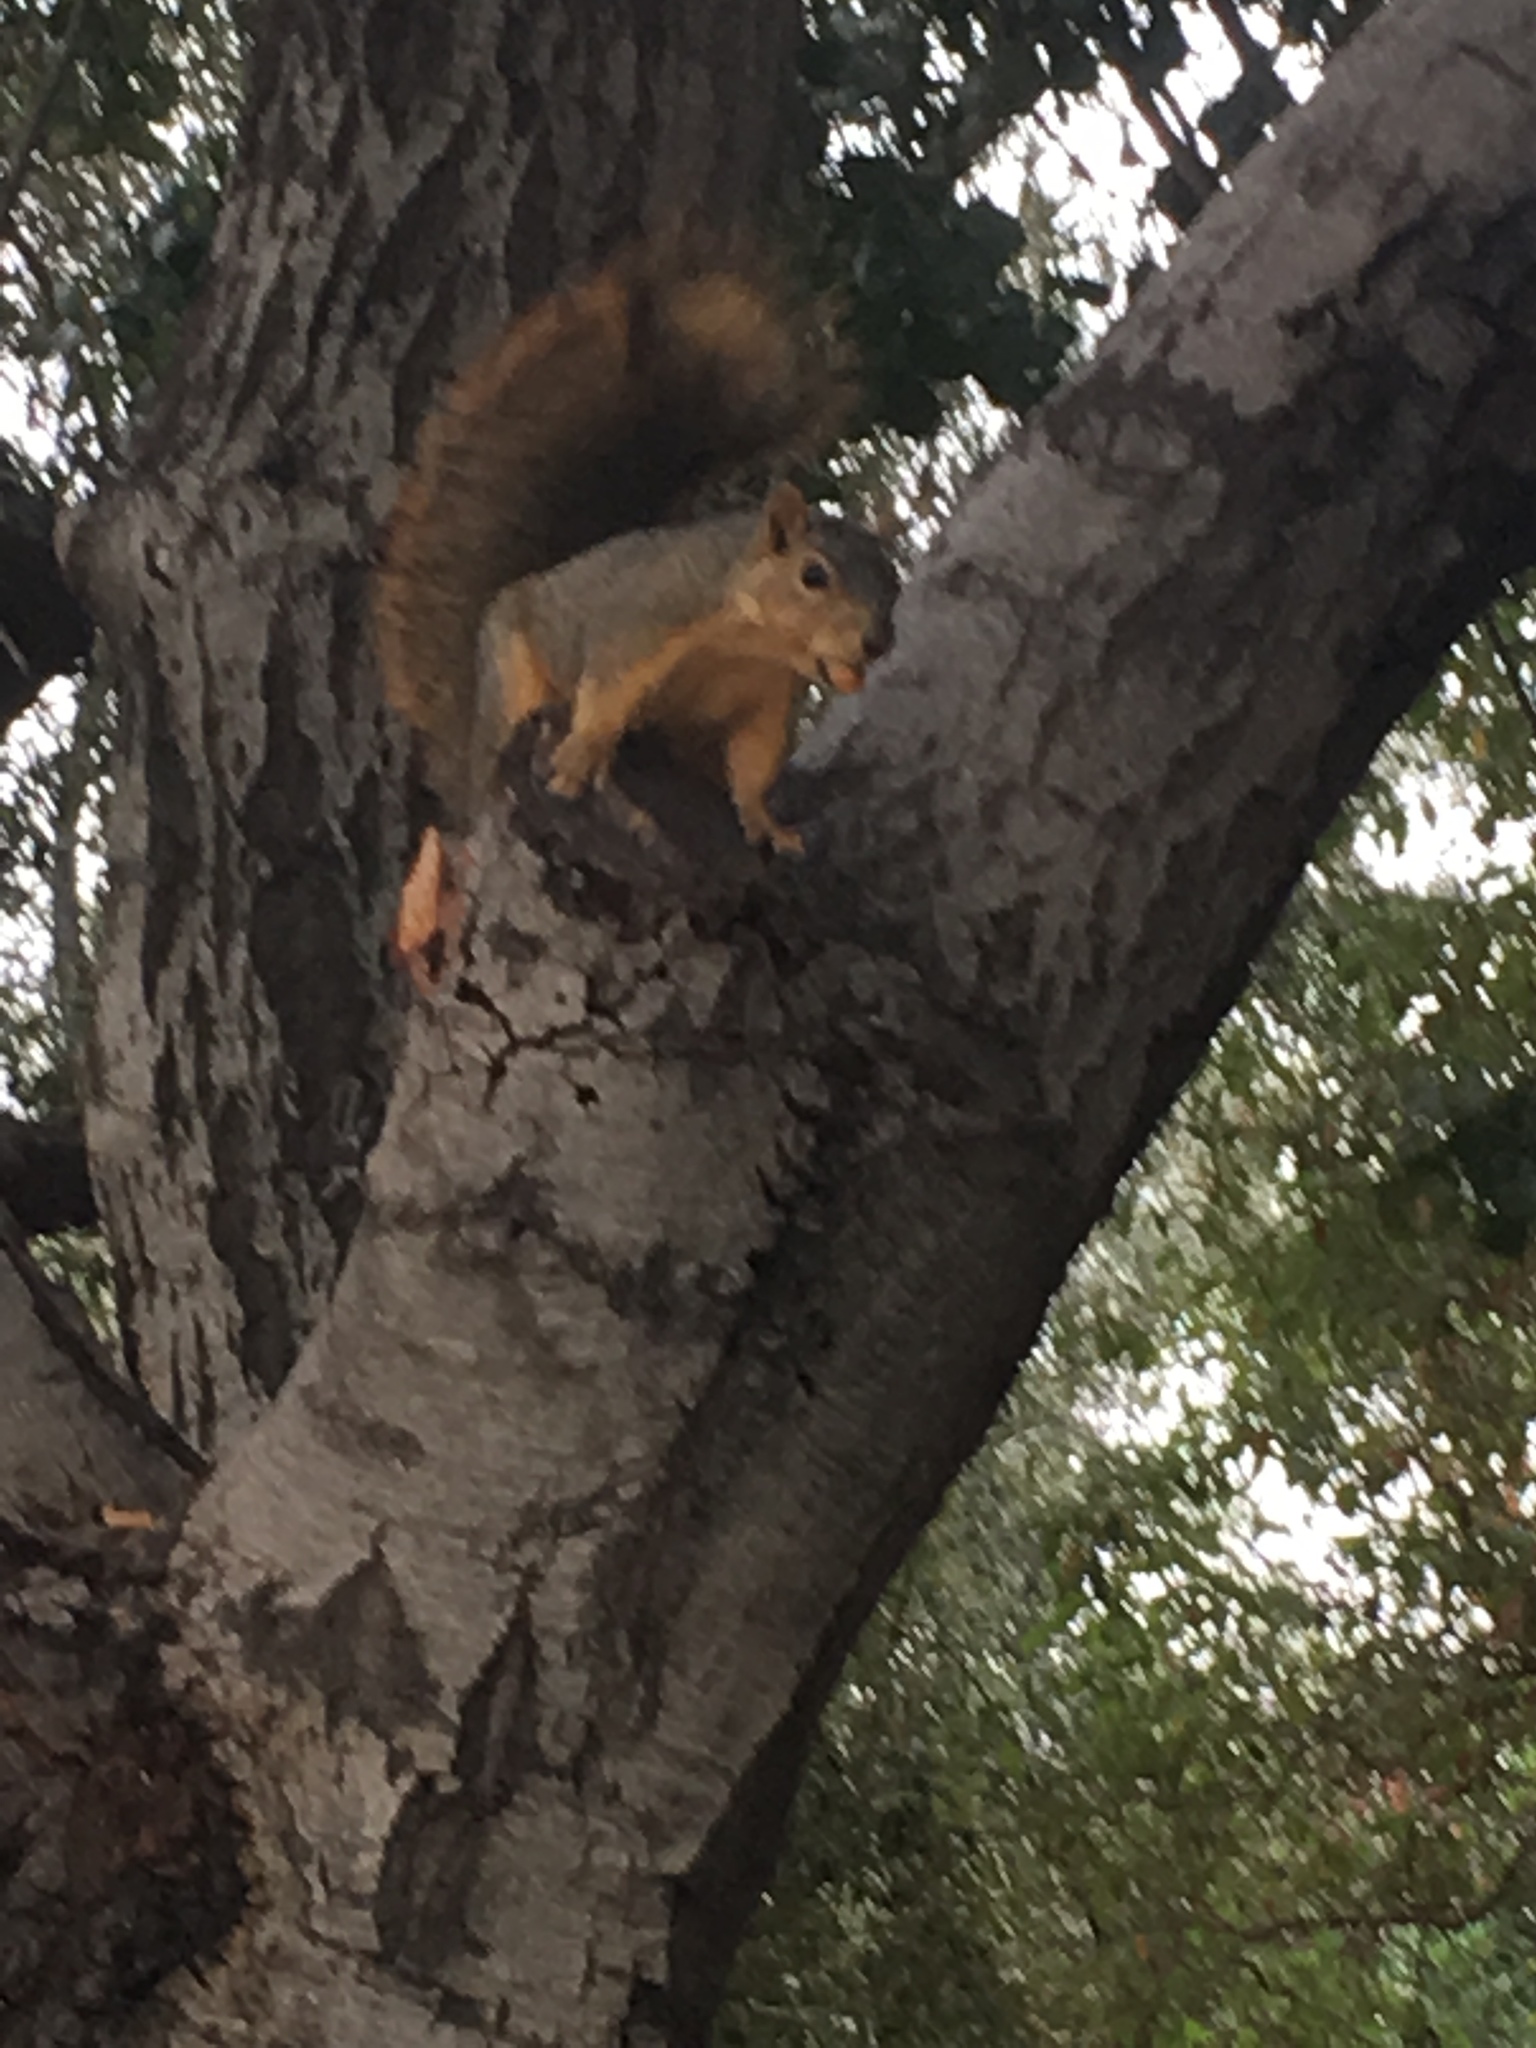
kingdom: Animalia
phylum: Chordata
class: Mammalia
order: Rodentia
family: Sciuridae
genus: Sciurus
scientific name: Sciurus niger
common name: Fox squirrel
